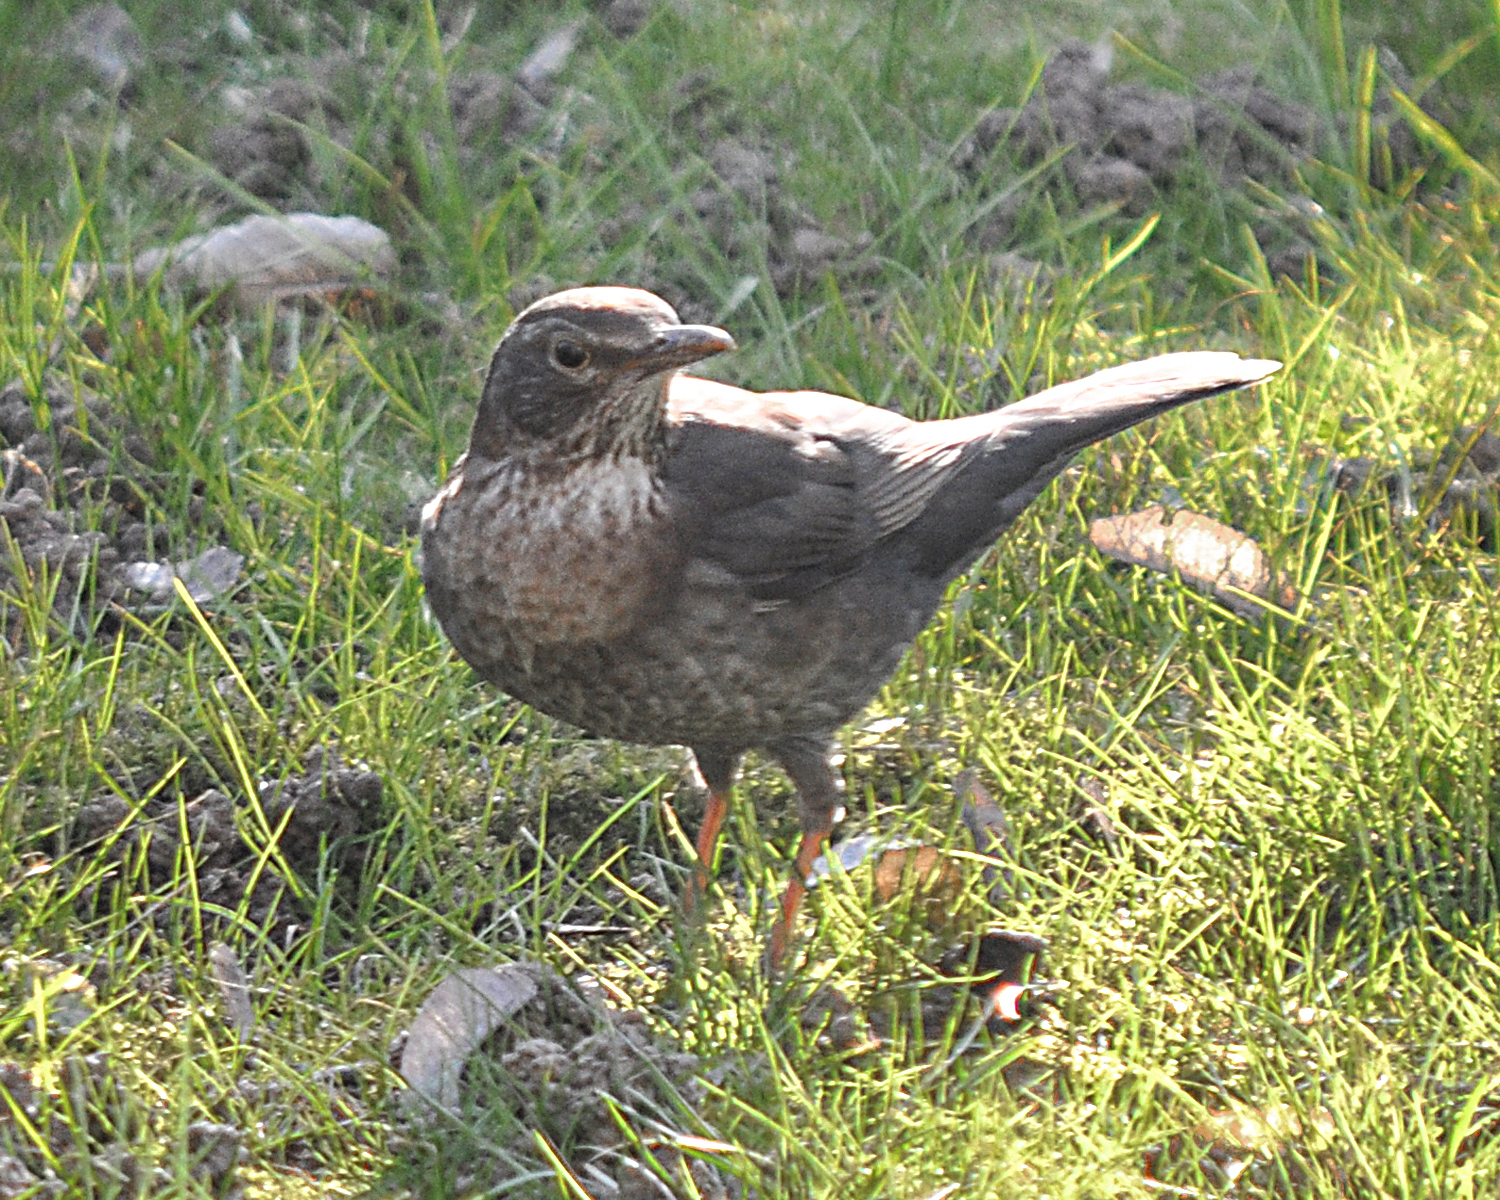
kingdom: Animalia
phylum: Chordata
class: Aves
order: Passeriformes
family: Turdidae
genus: Turdus
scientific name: Turdus merula
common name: Common blackbird
